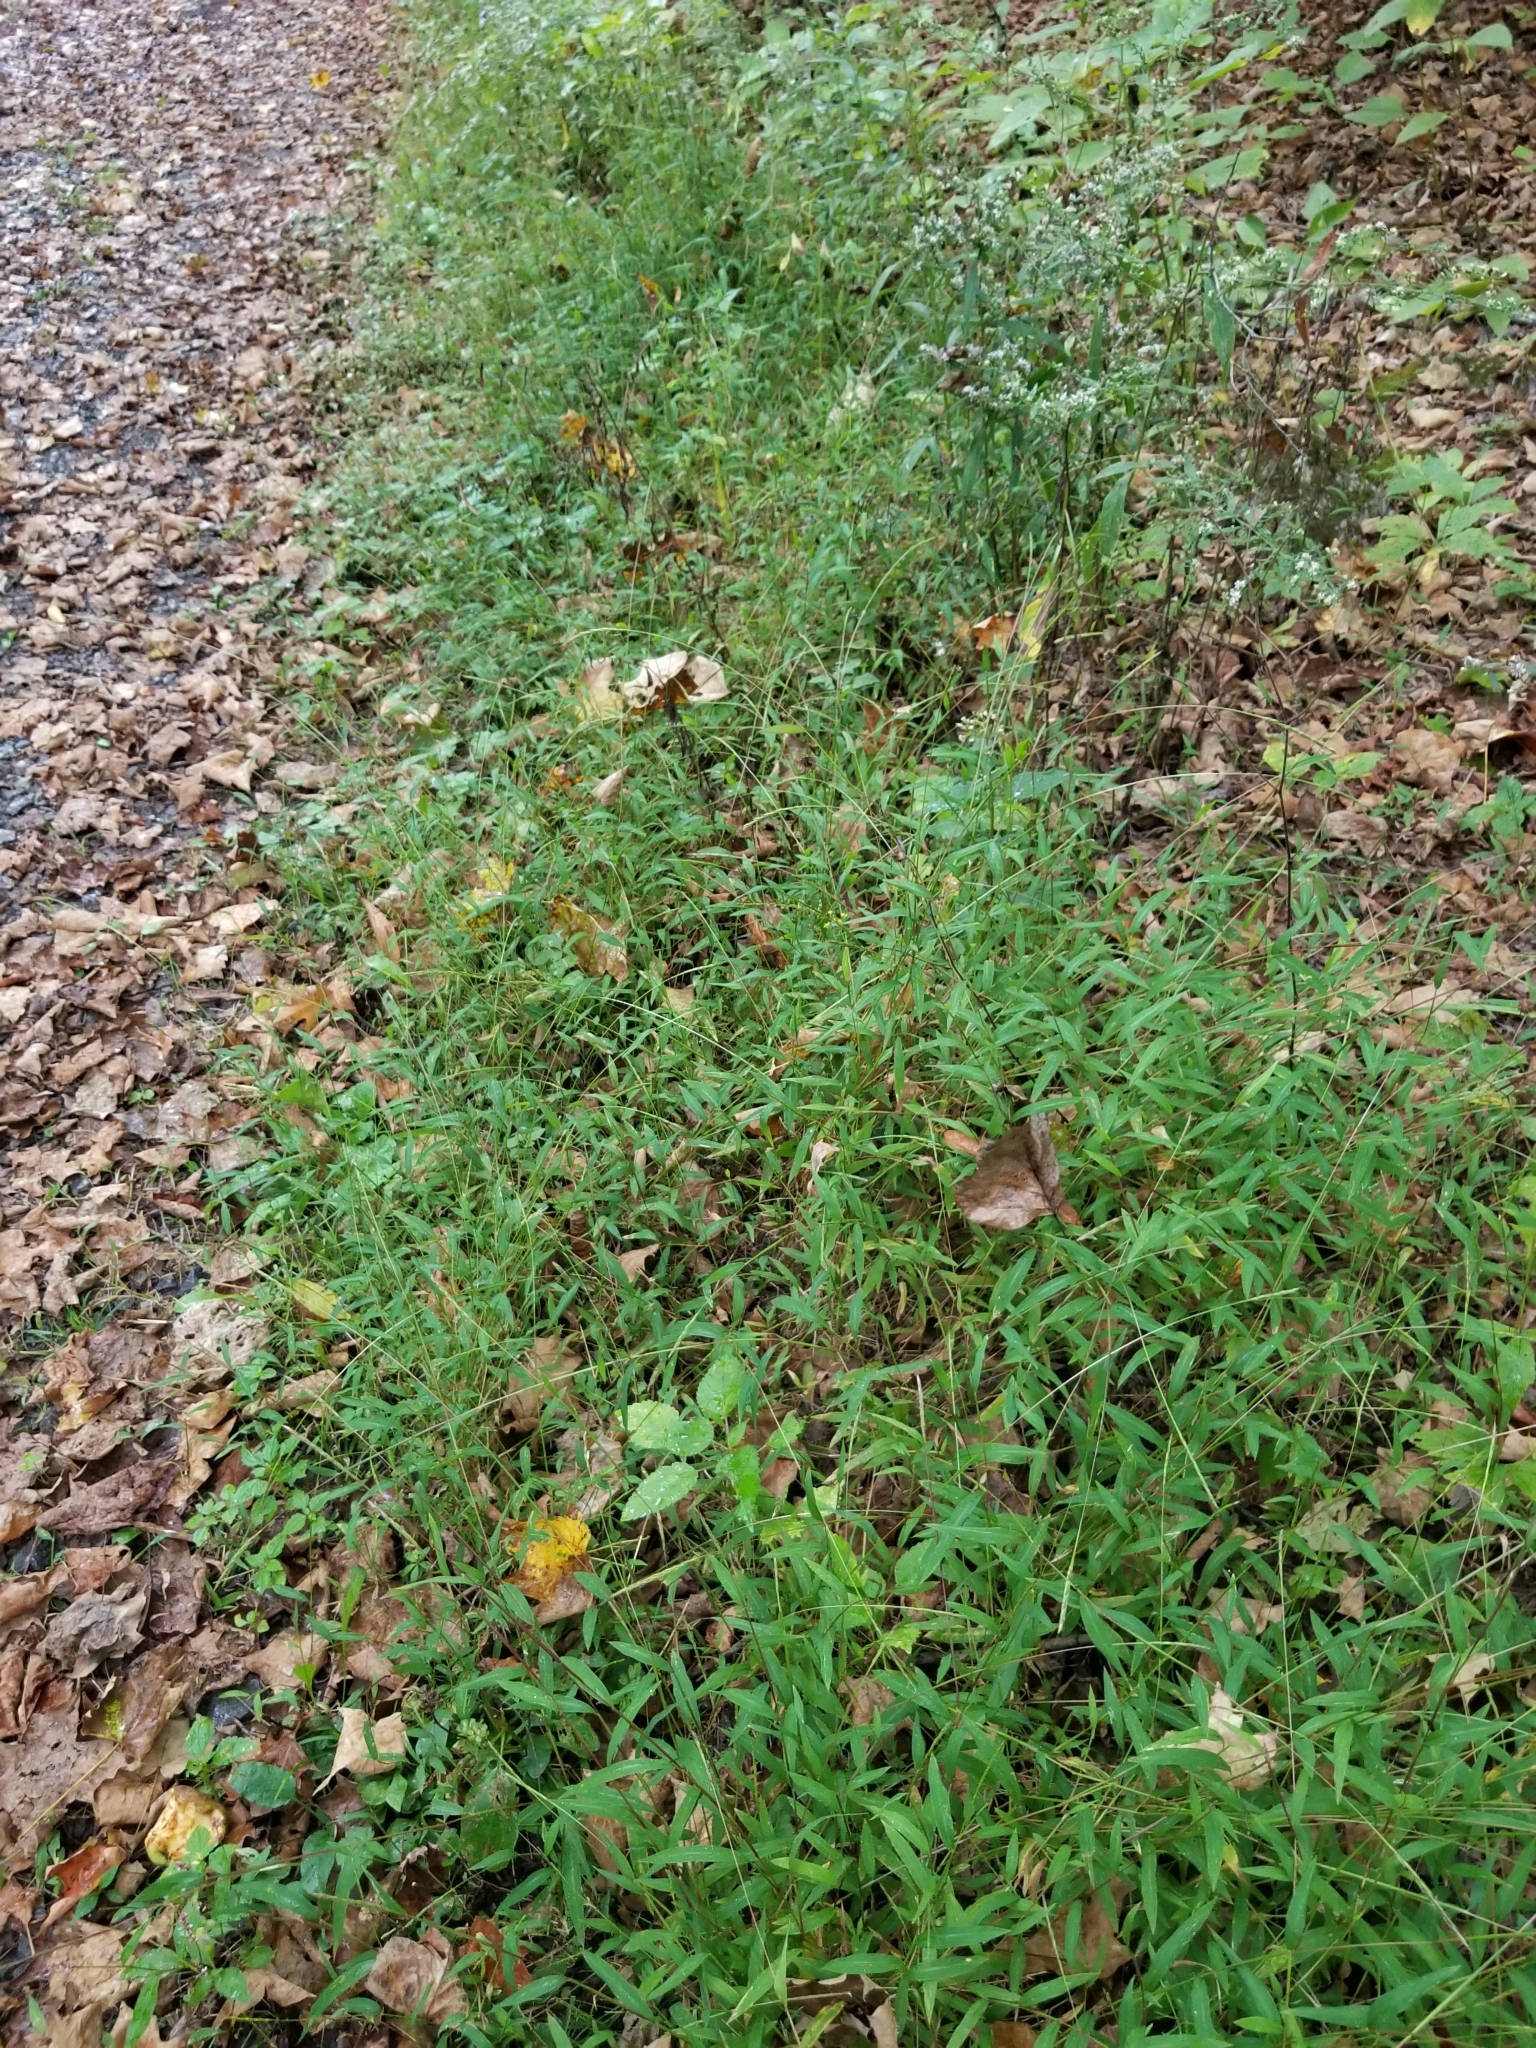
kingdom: Plantae
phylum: Tracheophyta
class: Liliopsida
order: Poales
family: Poaceae
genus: Microstegium
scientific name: Microstegium vimineum
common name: Japanese stiltgrass
